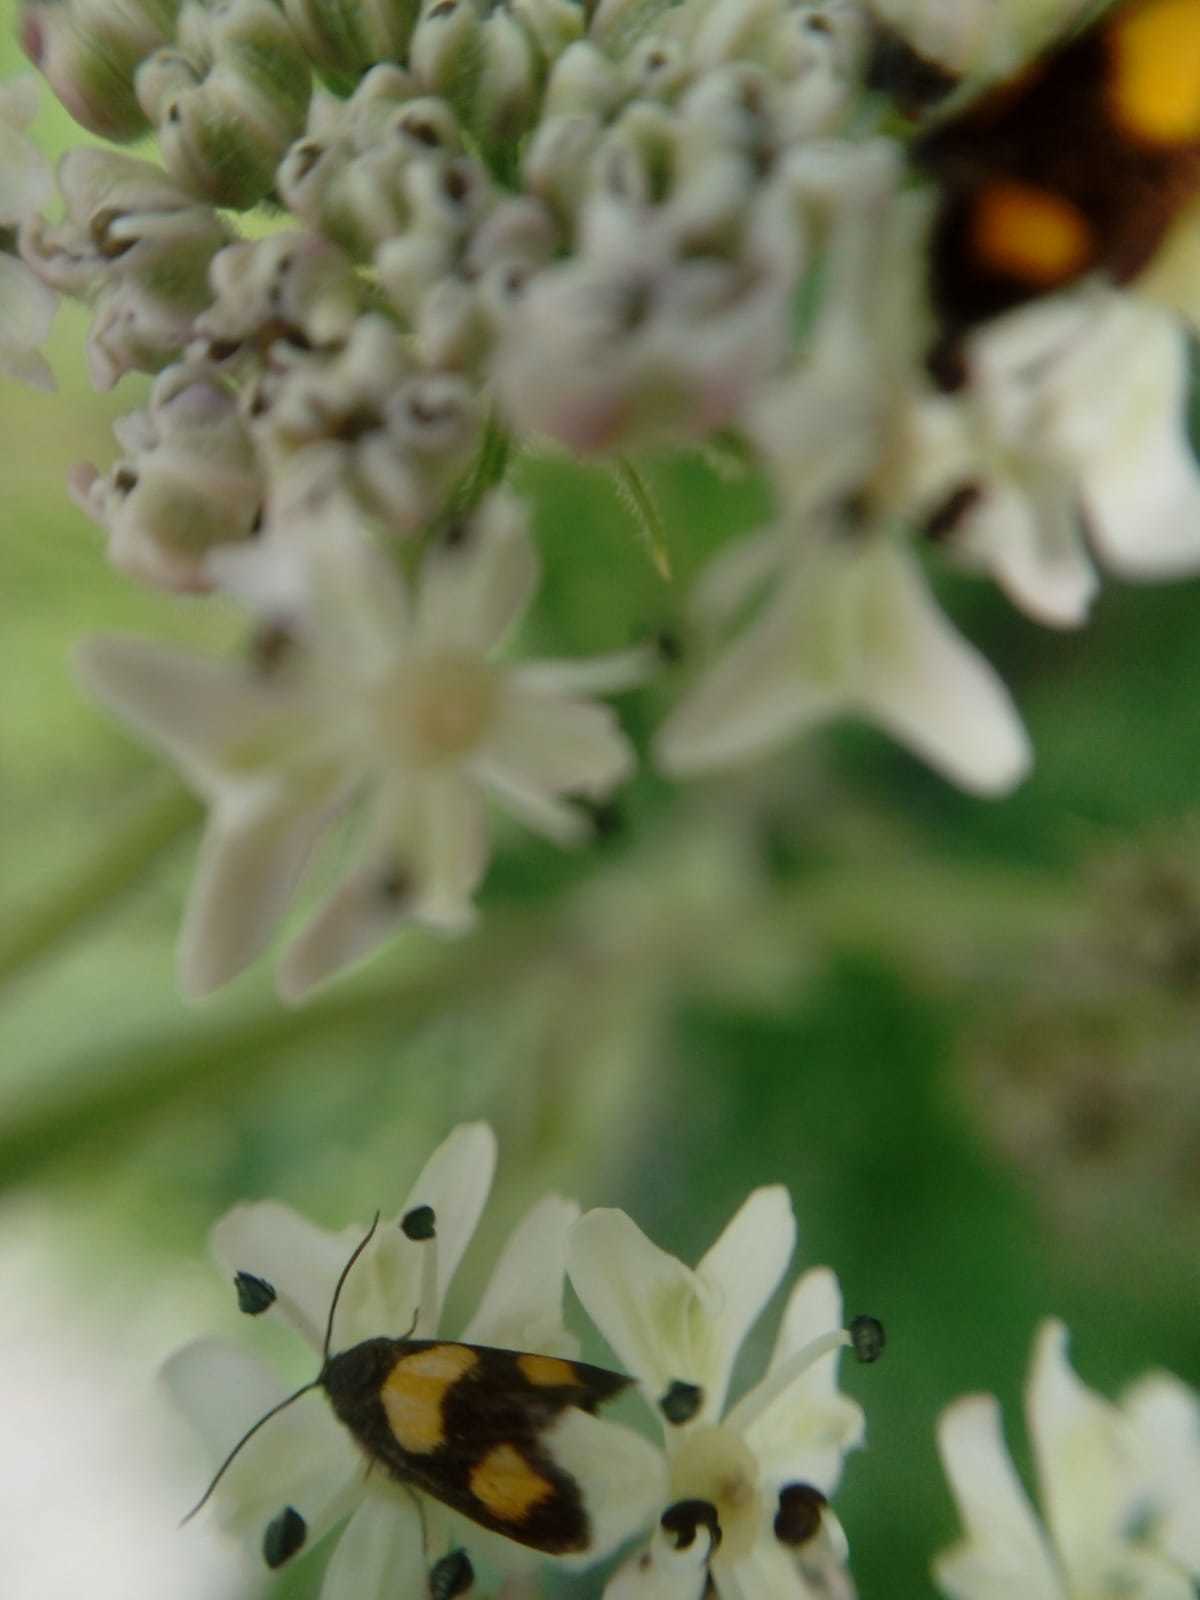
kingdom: Animalia
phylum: Arthropoda
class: Insecta
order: Lepidoptera
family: Tortricidae
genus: Pammene
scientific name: Pammene aurana
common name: Orange-spot piercer
